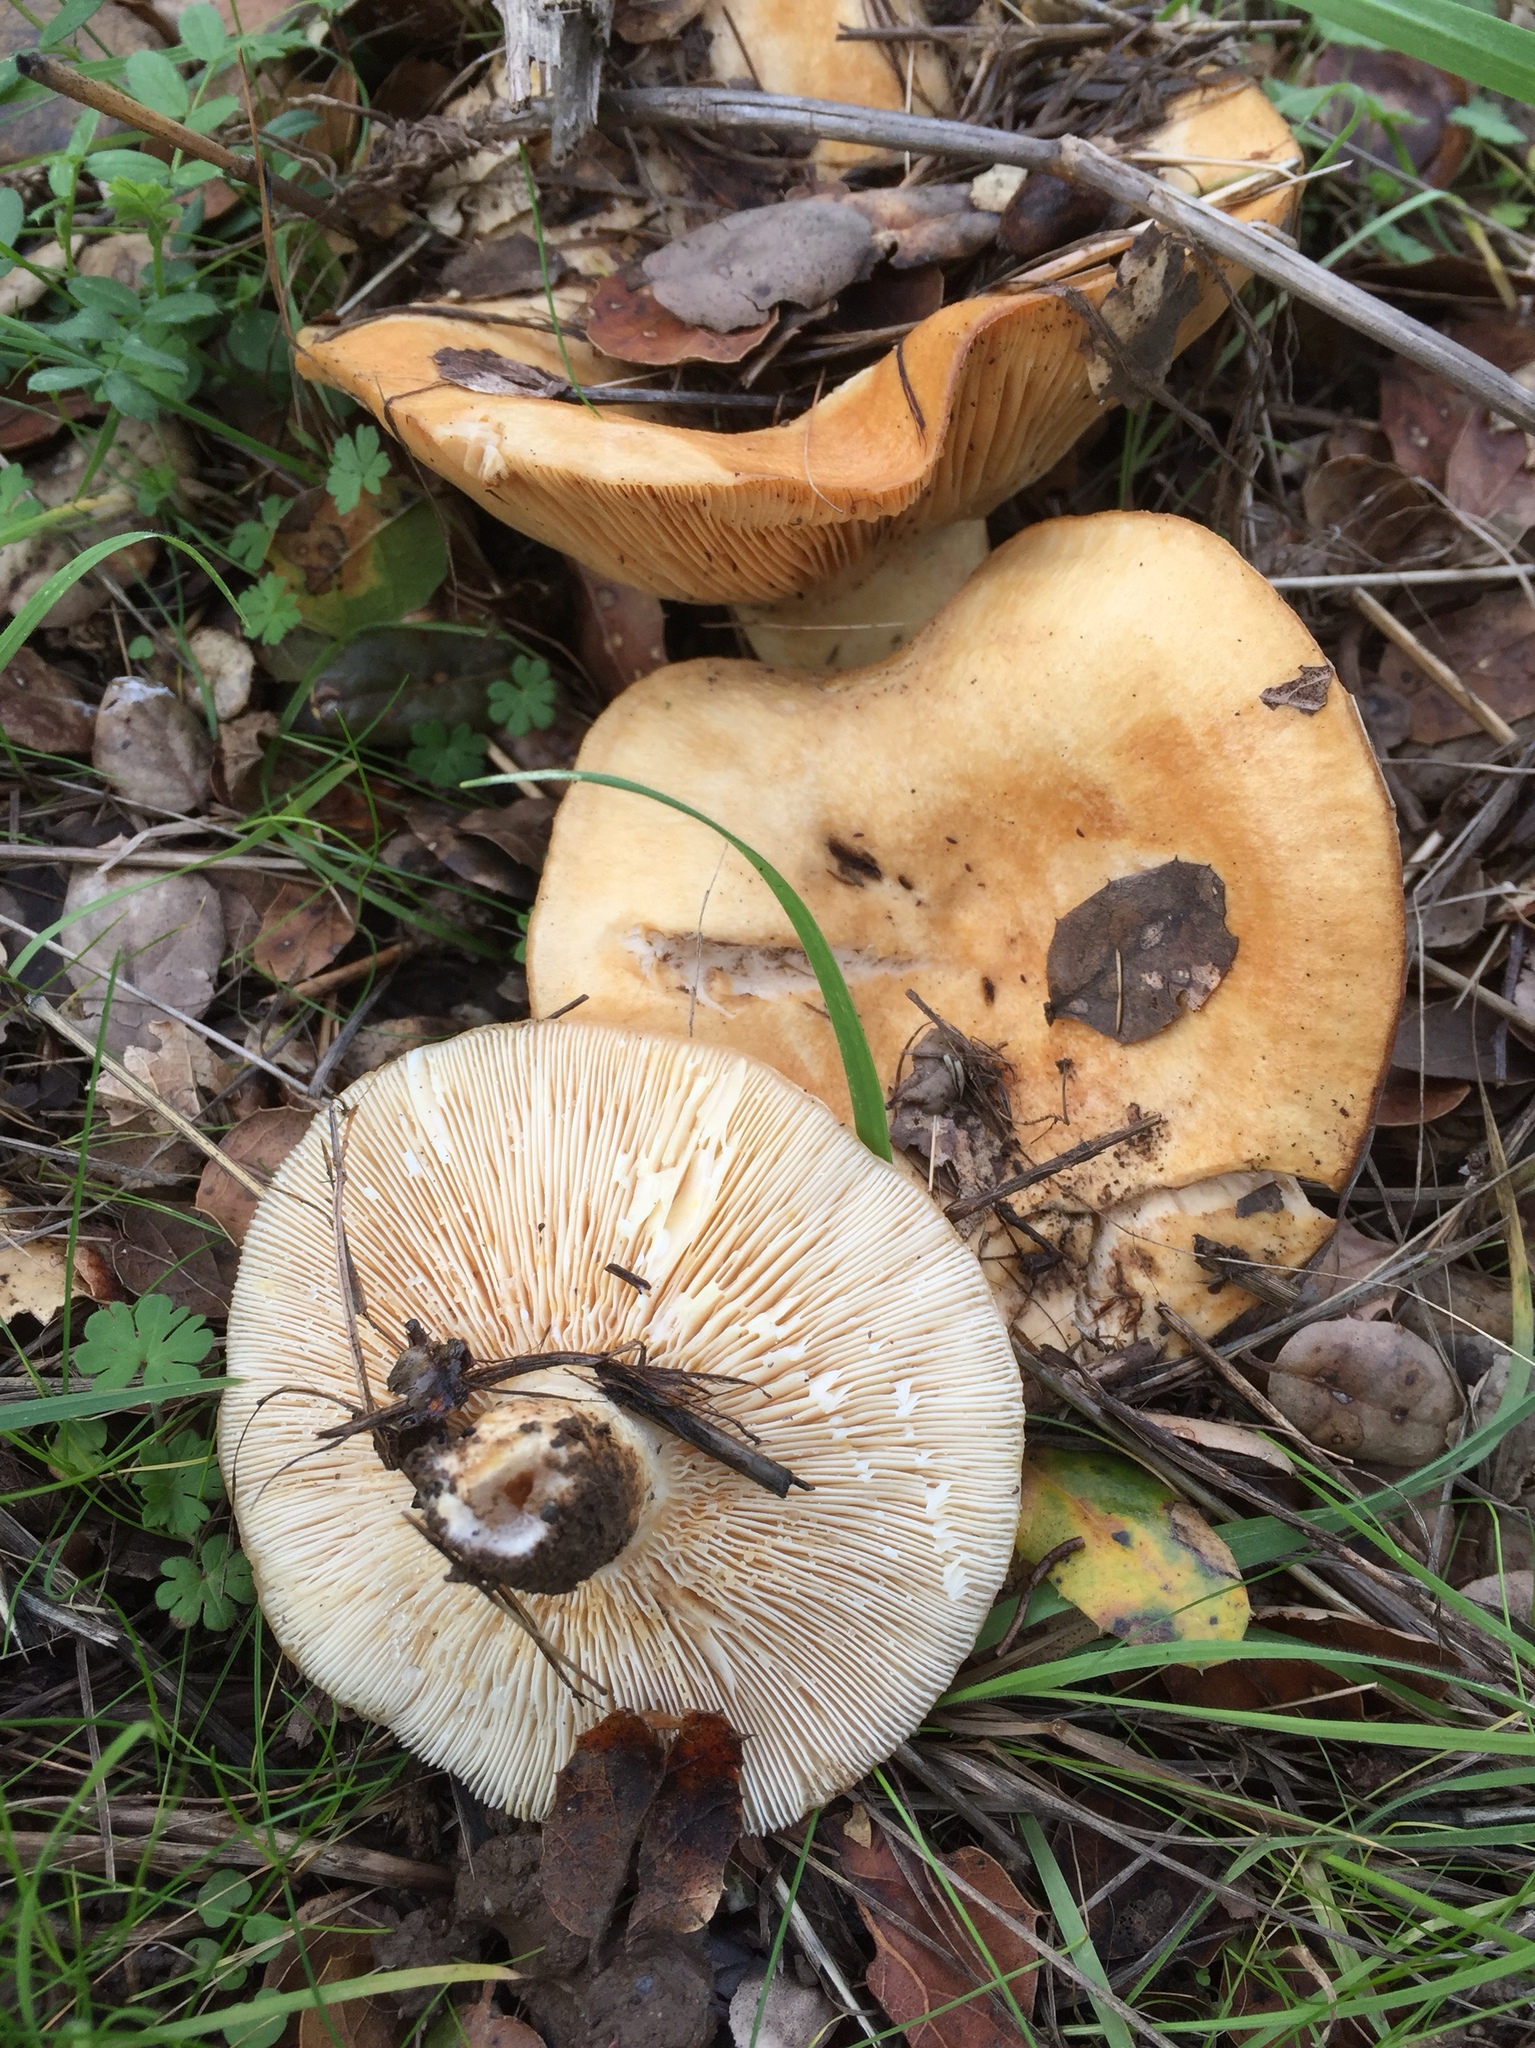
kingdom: Fungi
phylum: Basidiomycota
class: Agaricomycetes
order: Russulales
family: Russulaceae
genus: Lactarius
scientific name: Lactarius alnicola
